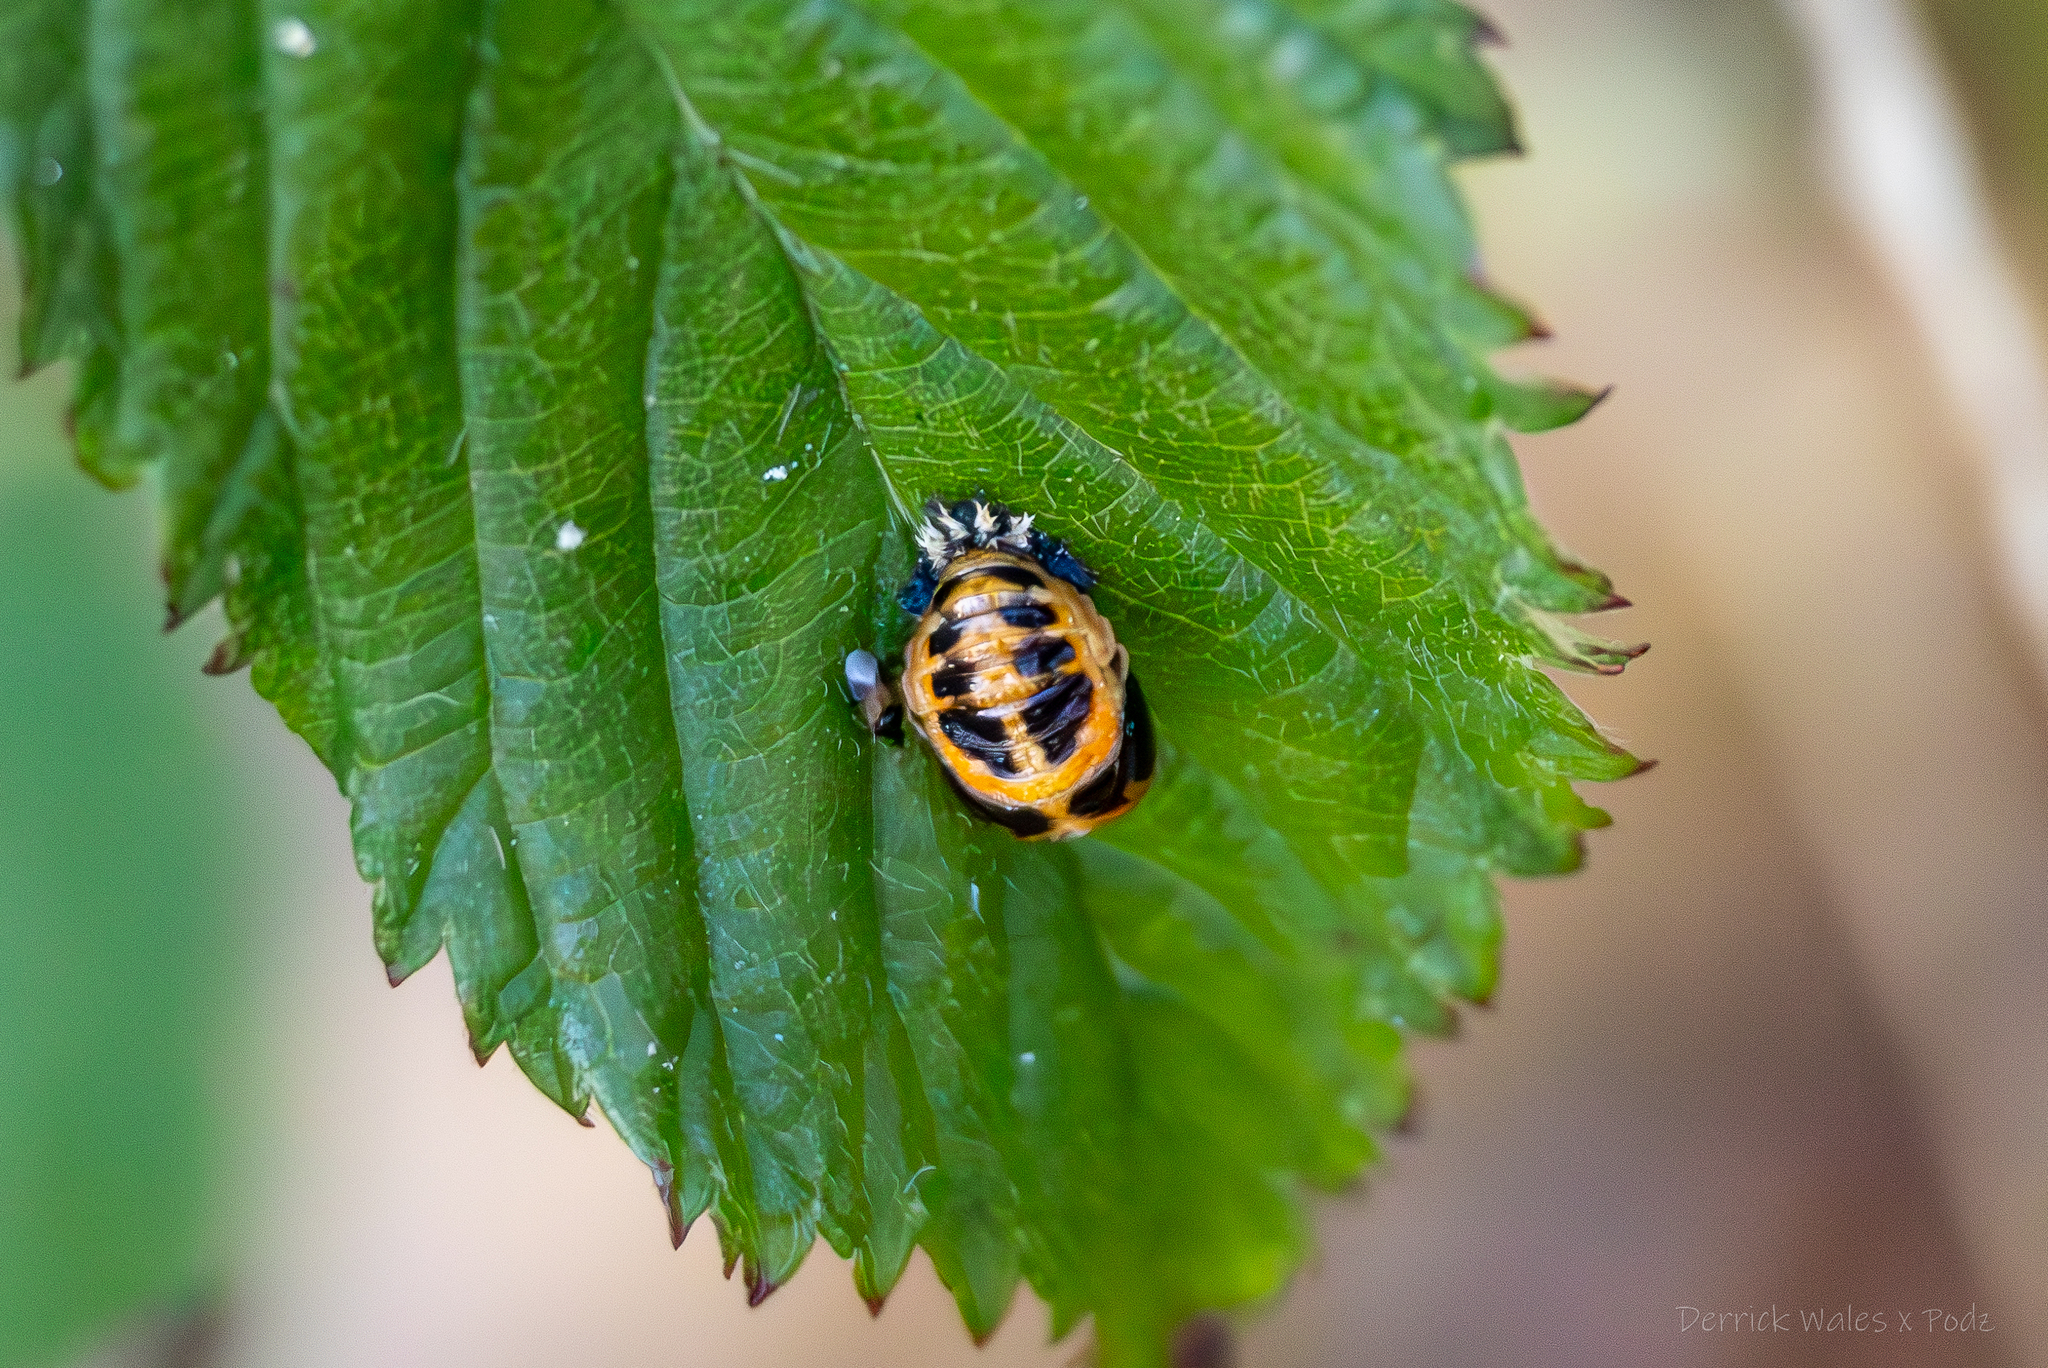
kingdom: Animalia
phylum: Arthropoda
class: Insecta
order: Coleoptera
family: Coccinellidae
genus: Harmonia
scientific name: Harmonia axyridis
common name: Harlequin ladybird
